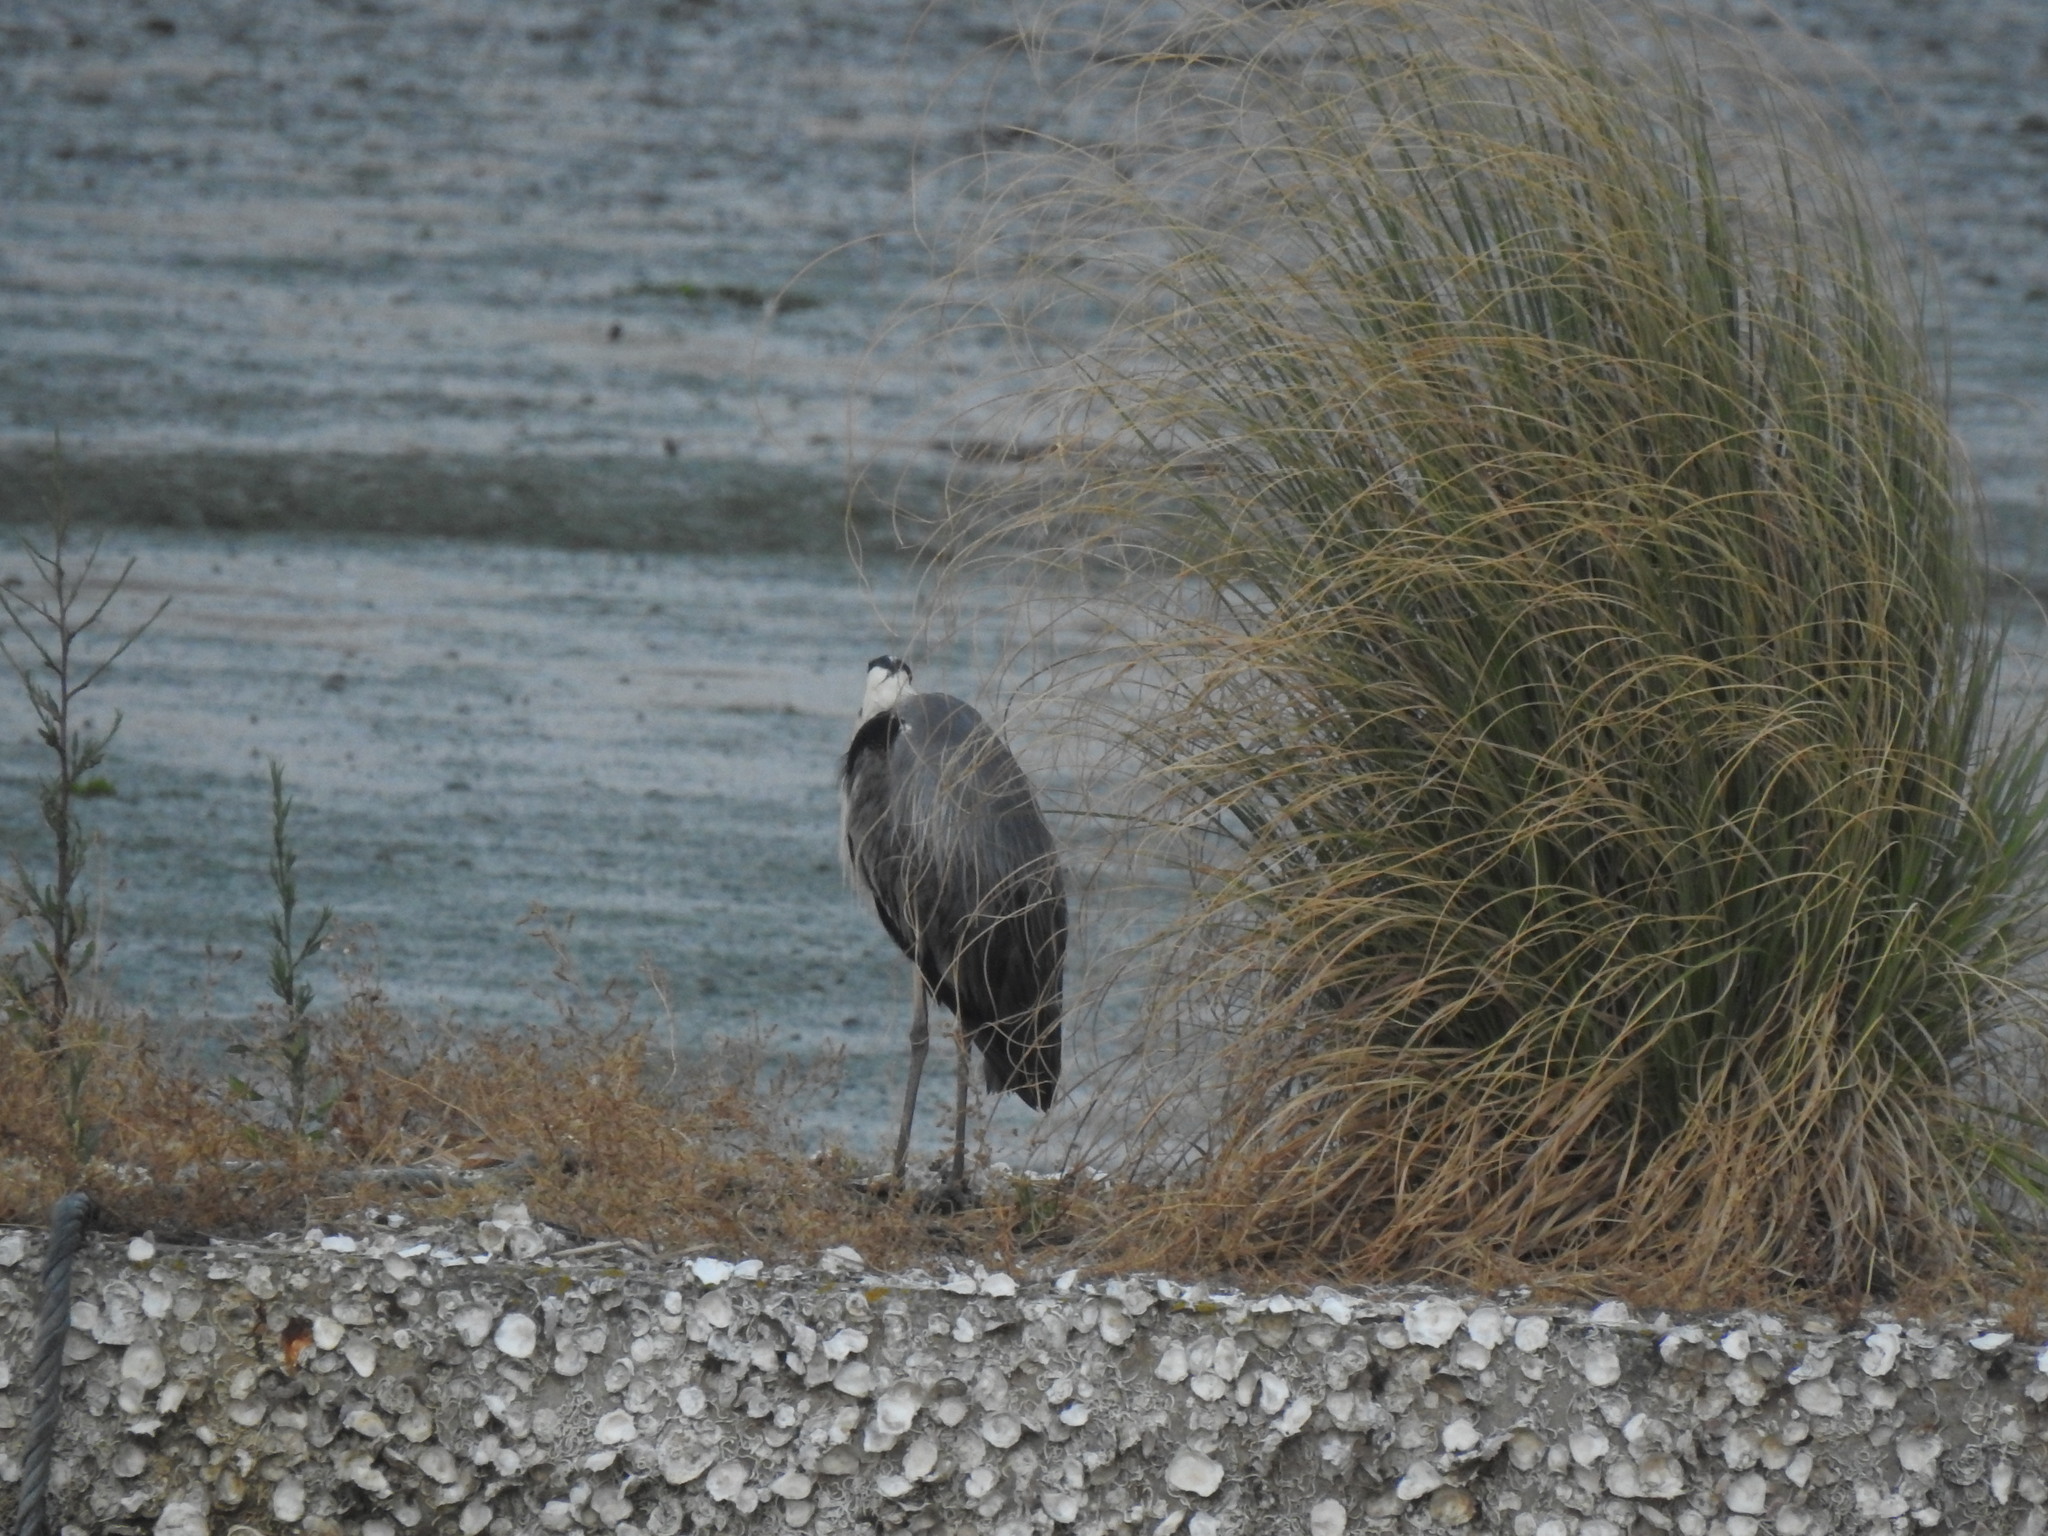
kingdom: Animalia
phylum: Chordata
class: Aves
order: Pelecaniformes
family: Ardeidae
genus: Ardea
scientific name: Ardea cinerea
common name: Grey heron
